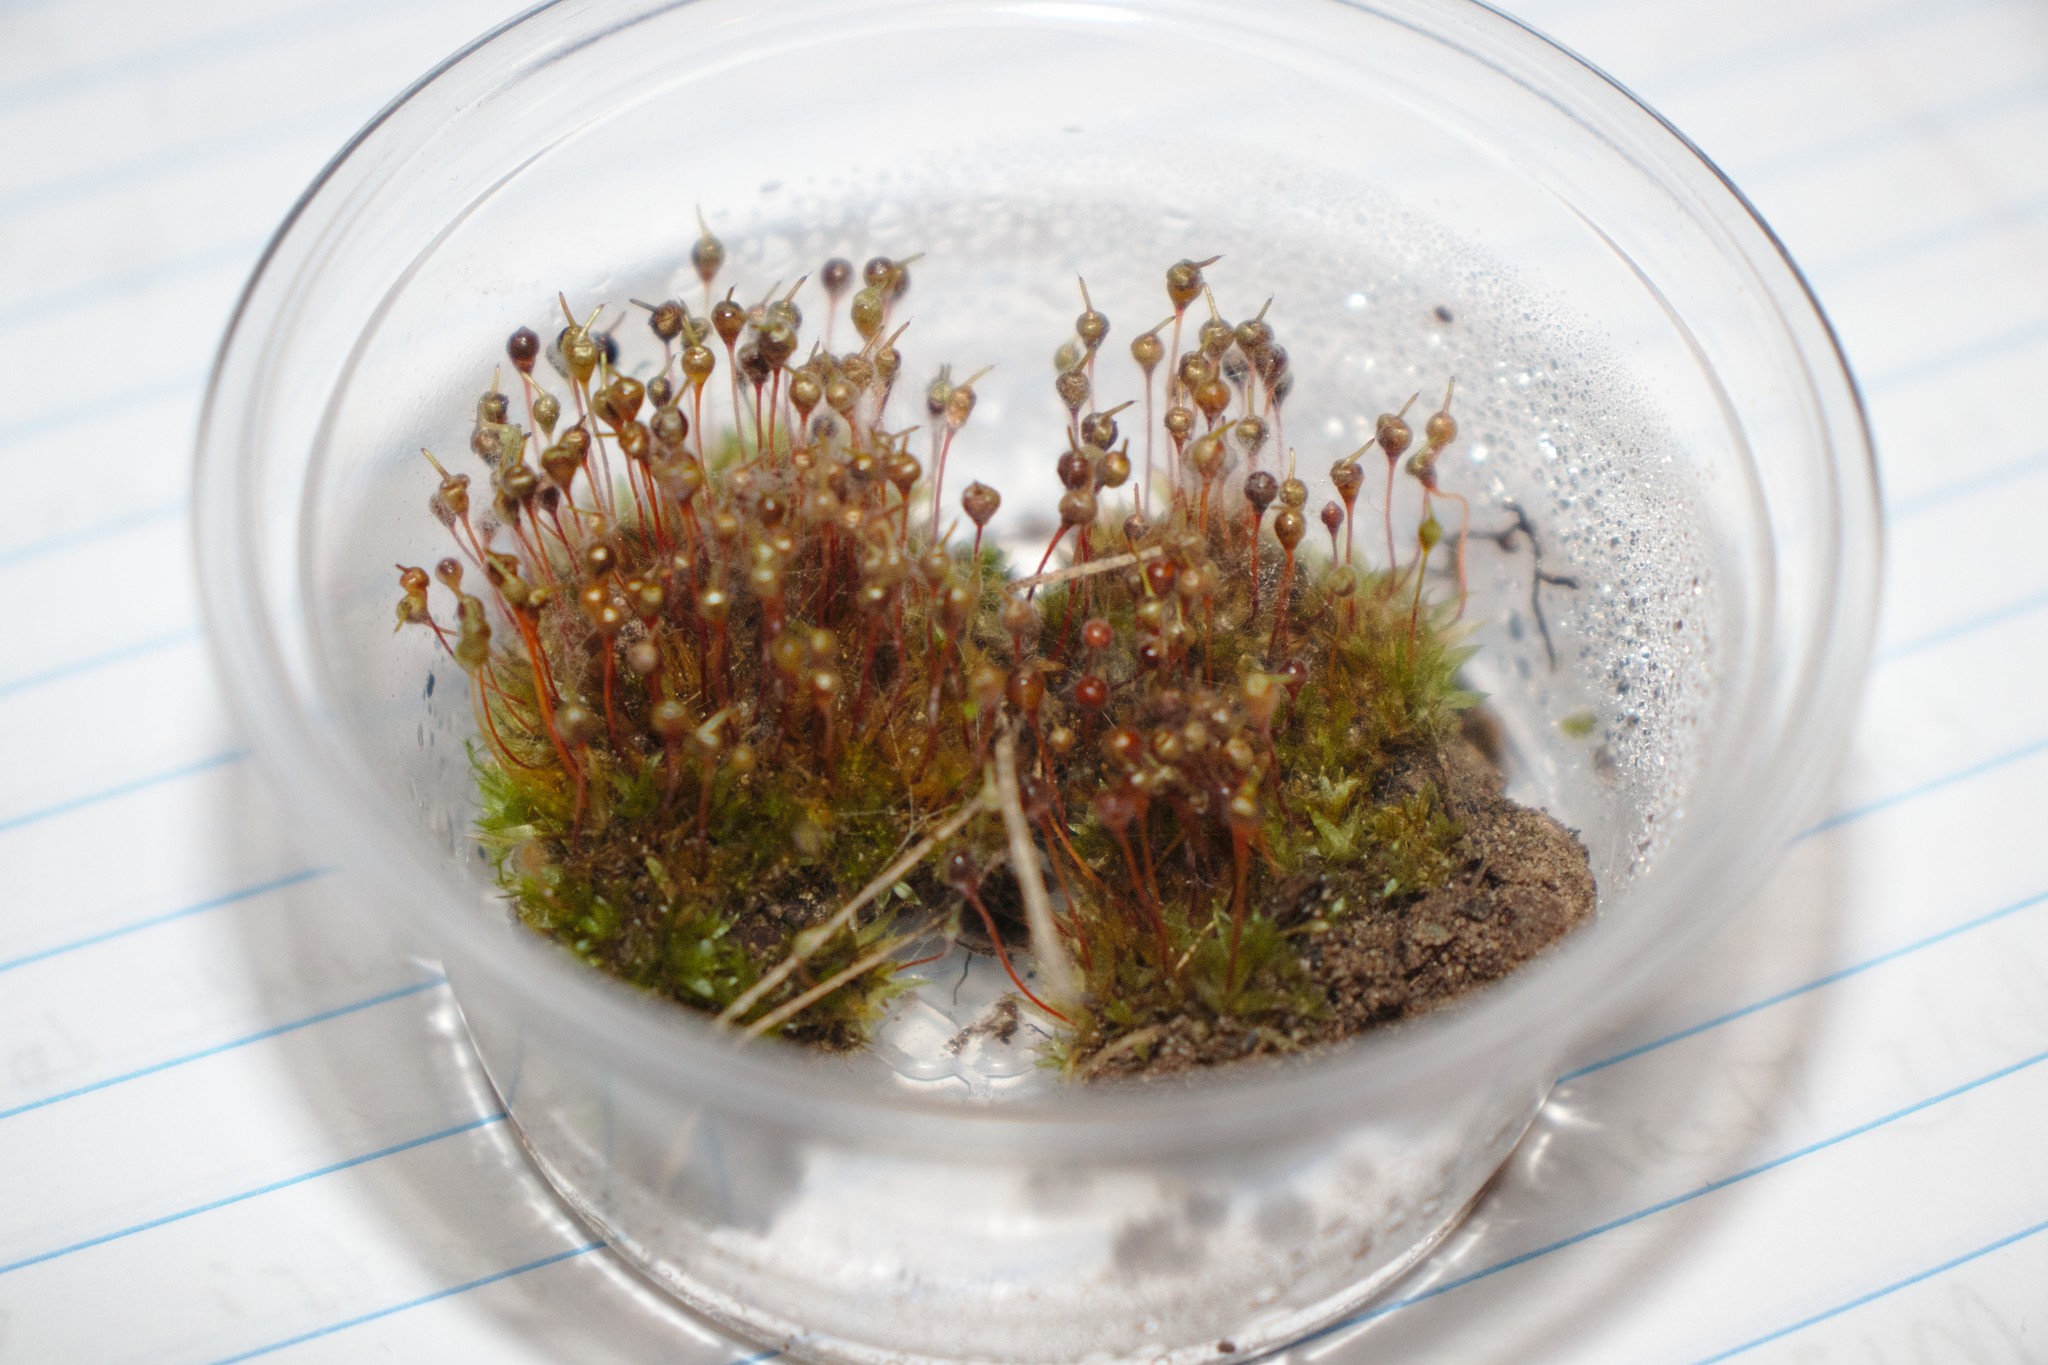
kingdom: Plantae
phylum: Bryophyta
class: Bryopsida
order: Funariales
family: Funariaceae
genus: Physcomitrium
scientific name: Physcomitrium pyriforme
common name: Common bladder-moss
